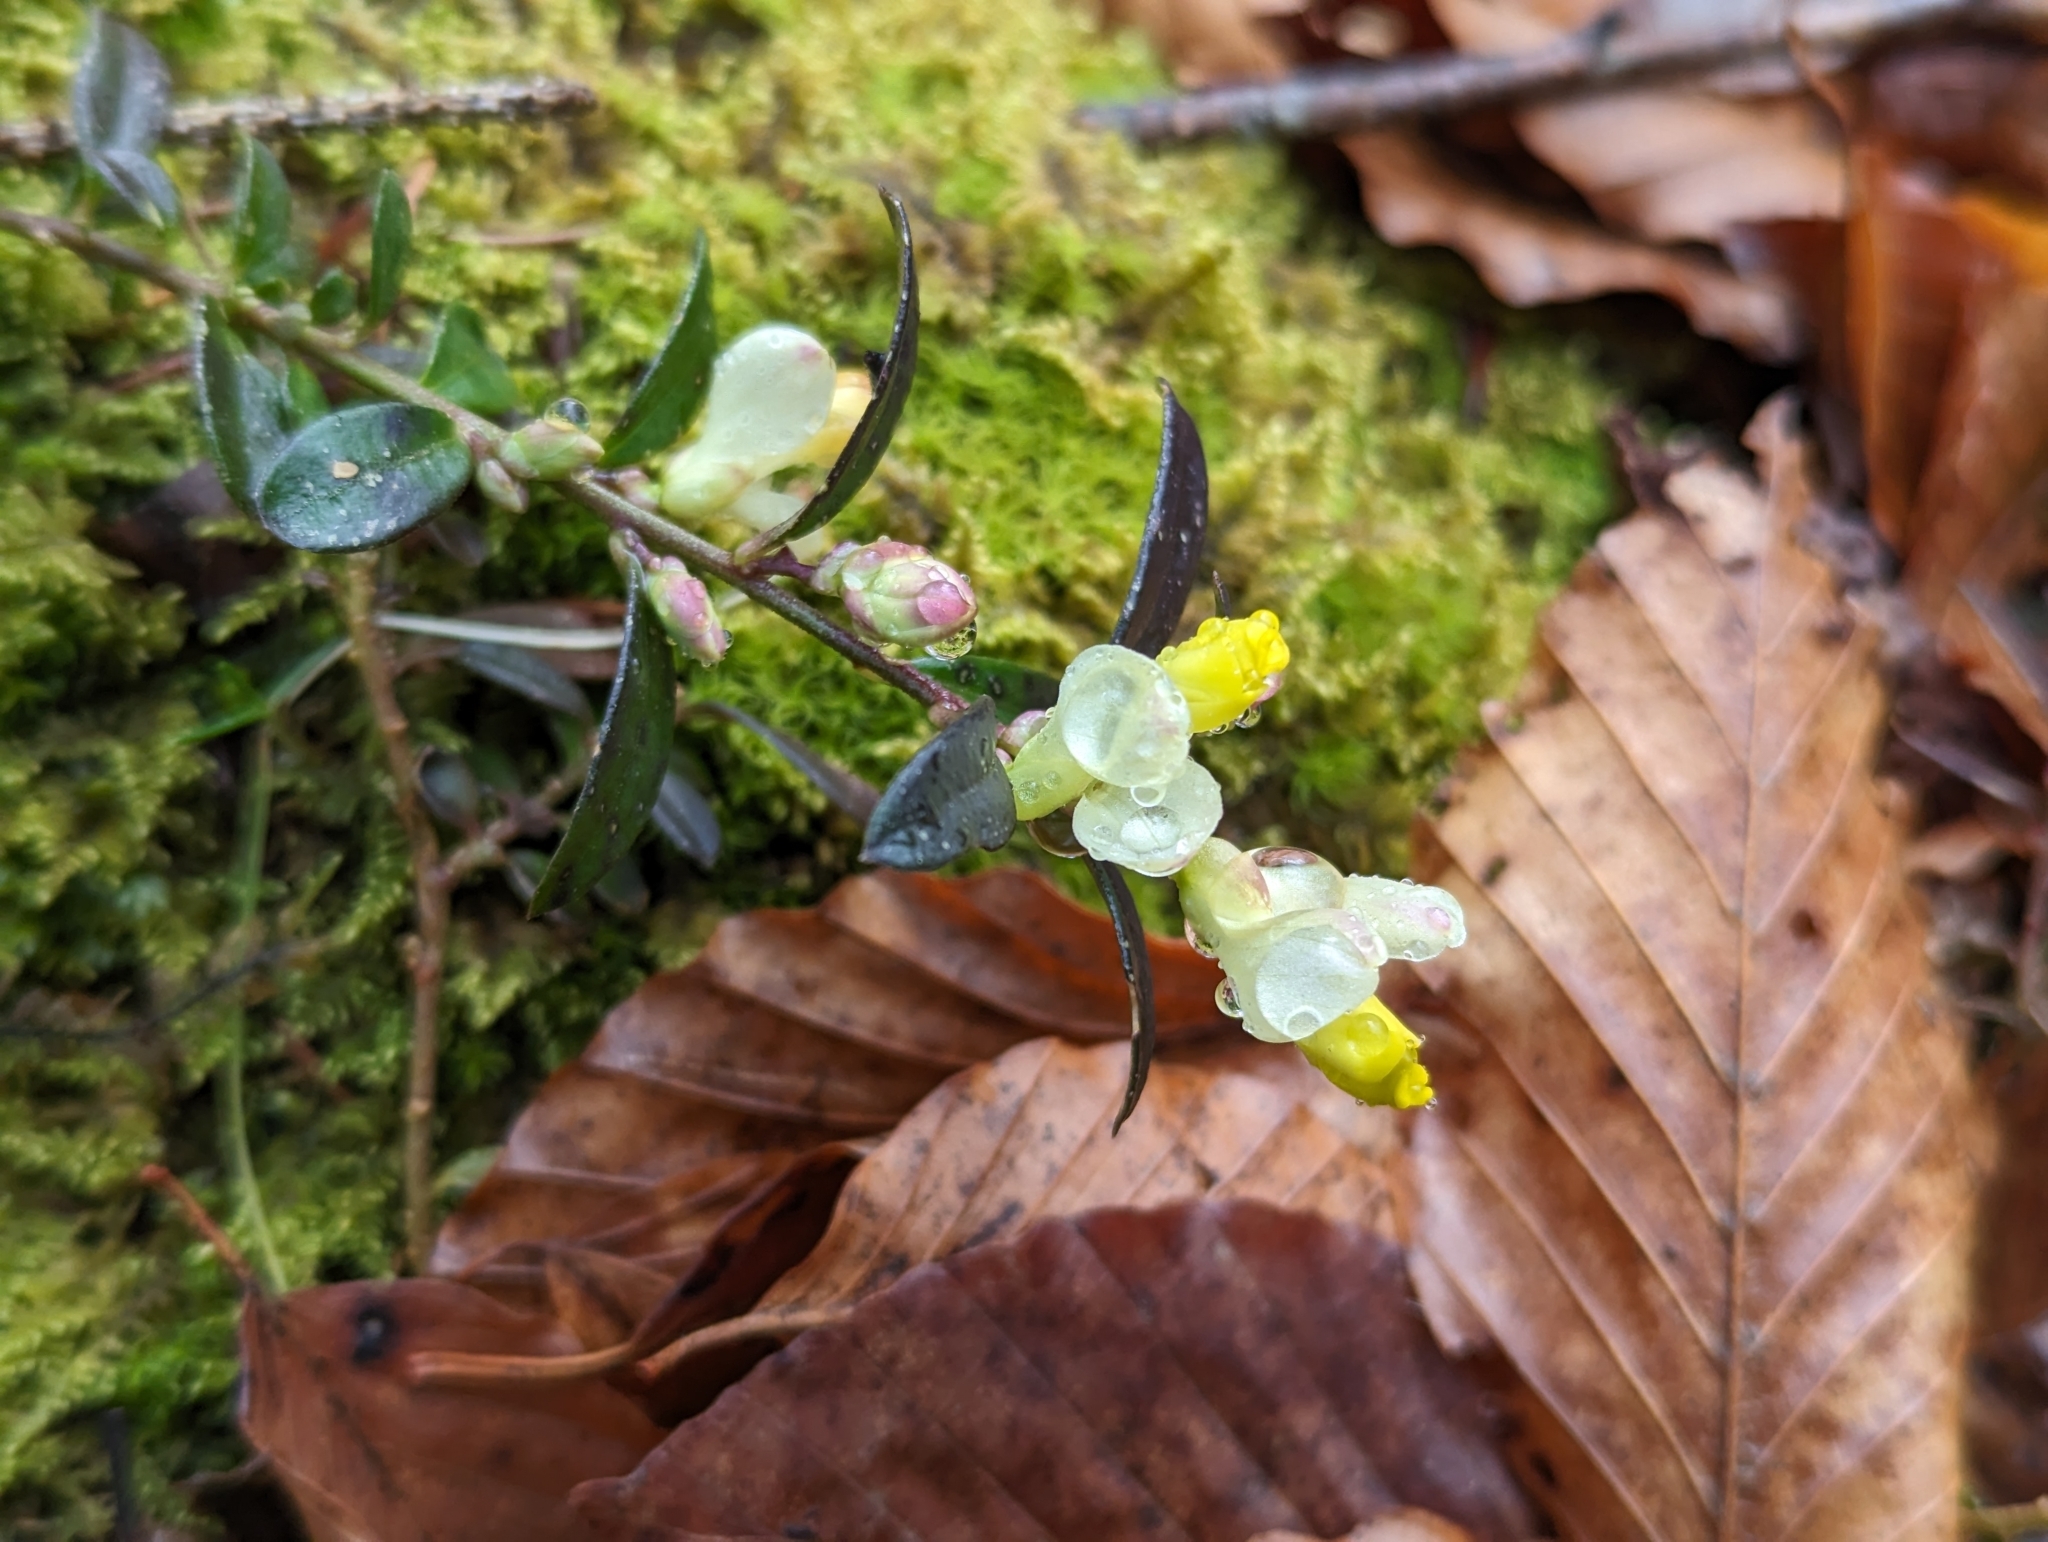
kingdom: Plantae
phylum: Tracheophyta
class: Magnoliopsida
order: Fabales
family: Polygalaceae
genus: Polygaloides
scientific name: Polygaloides chamaebuxus
